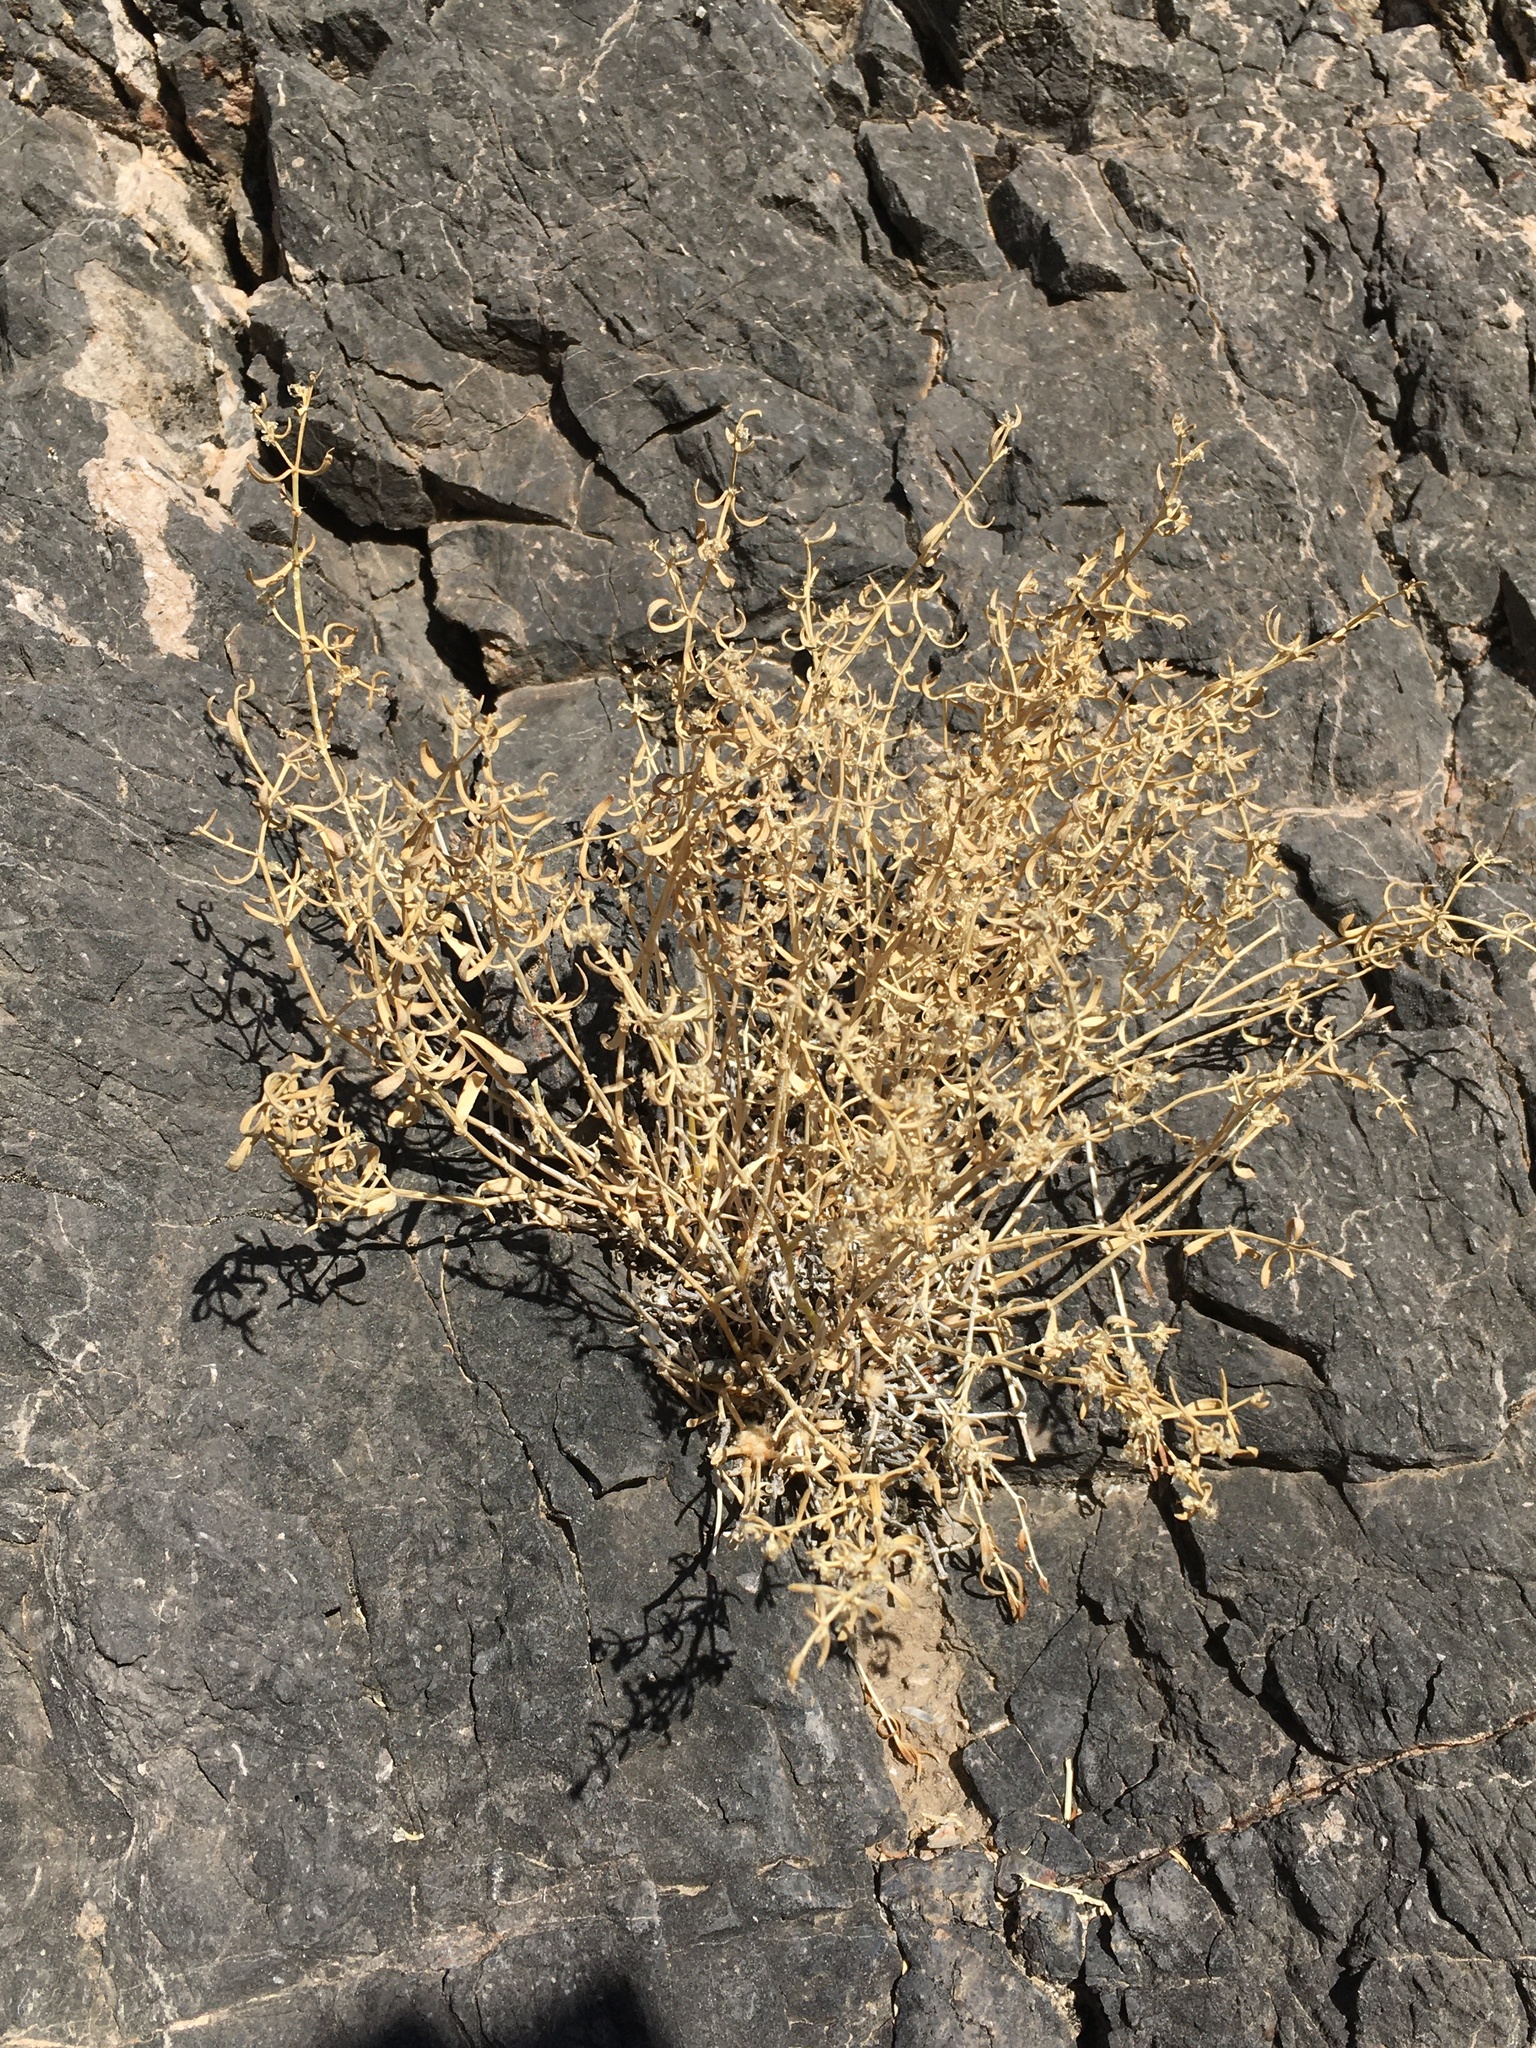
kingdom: Plantae
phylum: Tracheophyta
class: Magnoliopsida
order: Caryophyllales
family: Caryophyllaceae
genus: Scopulophila
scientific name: Scopulophila rixfordii
